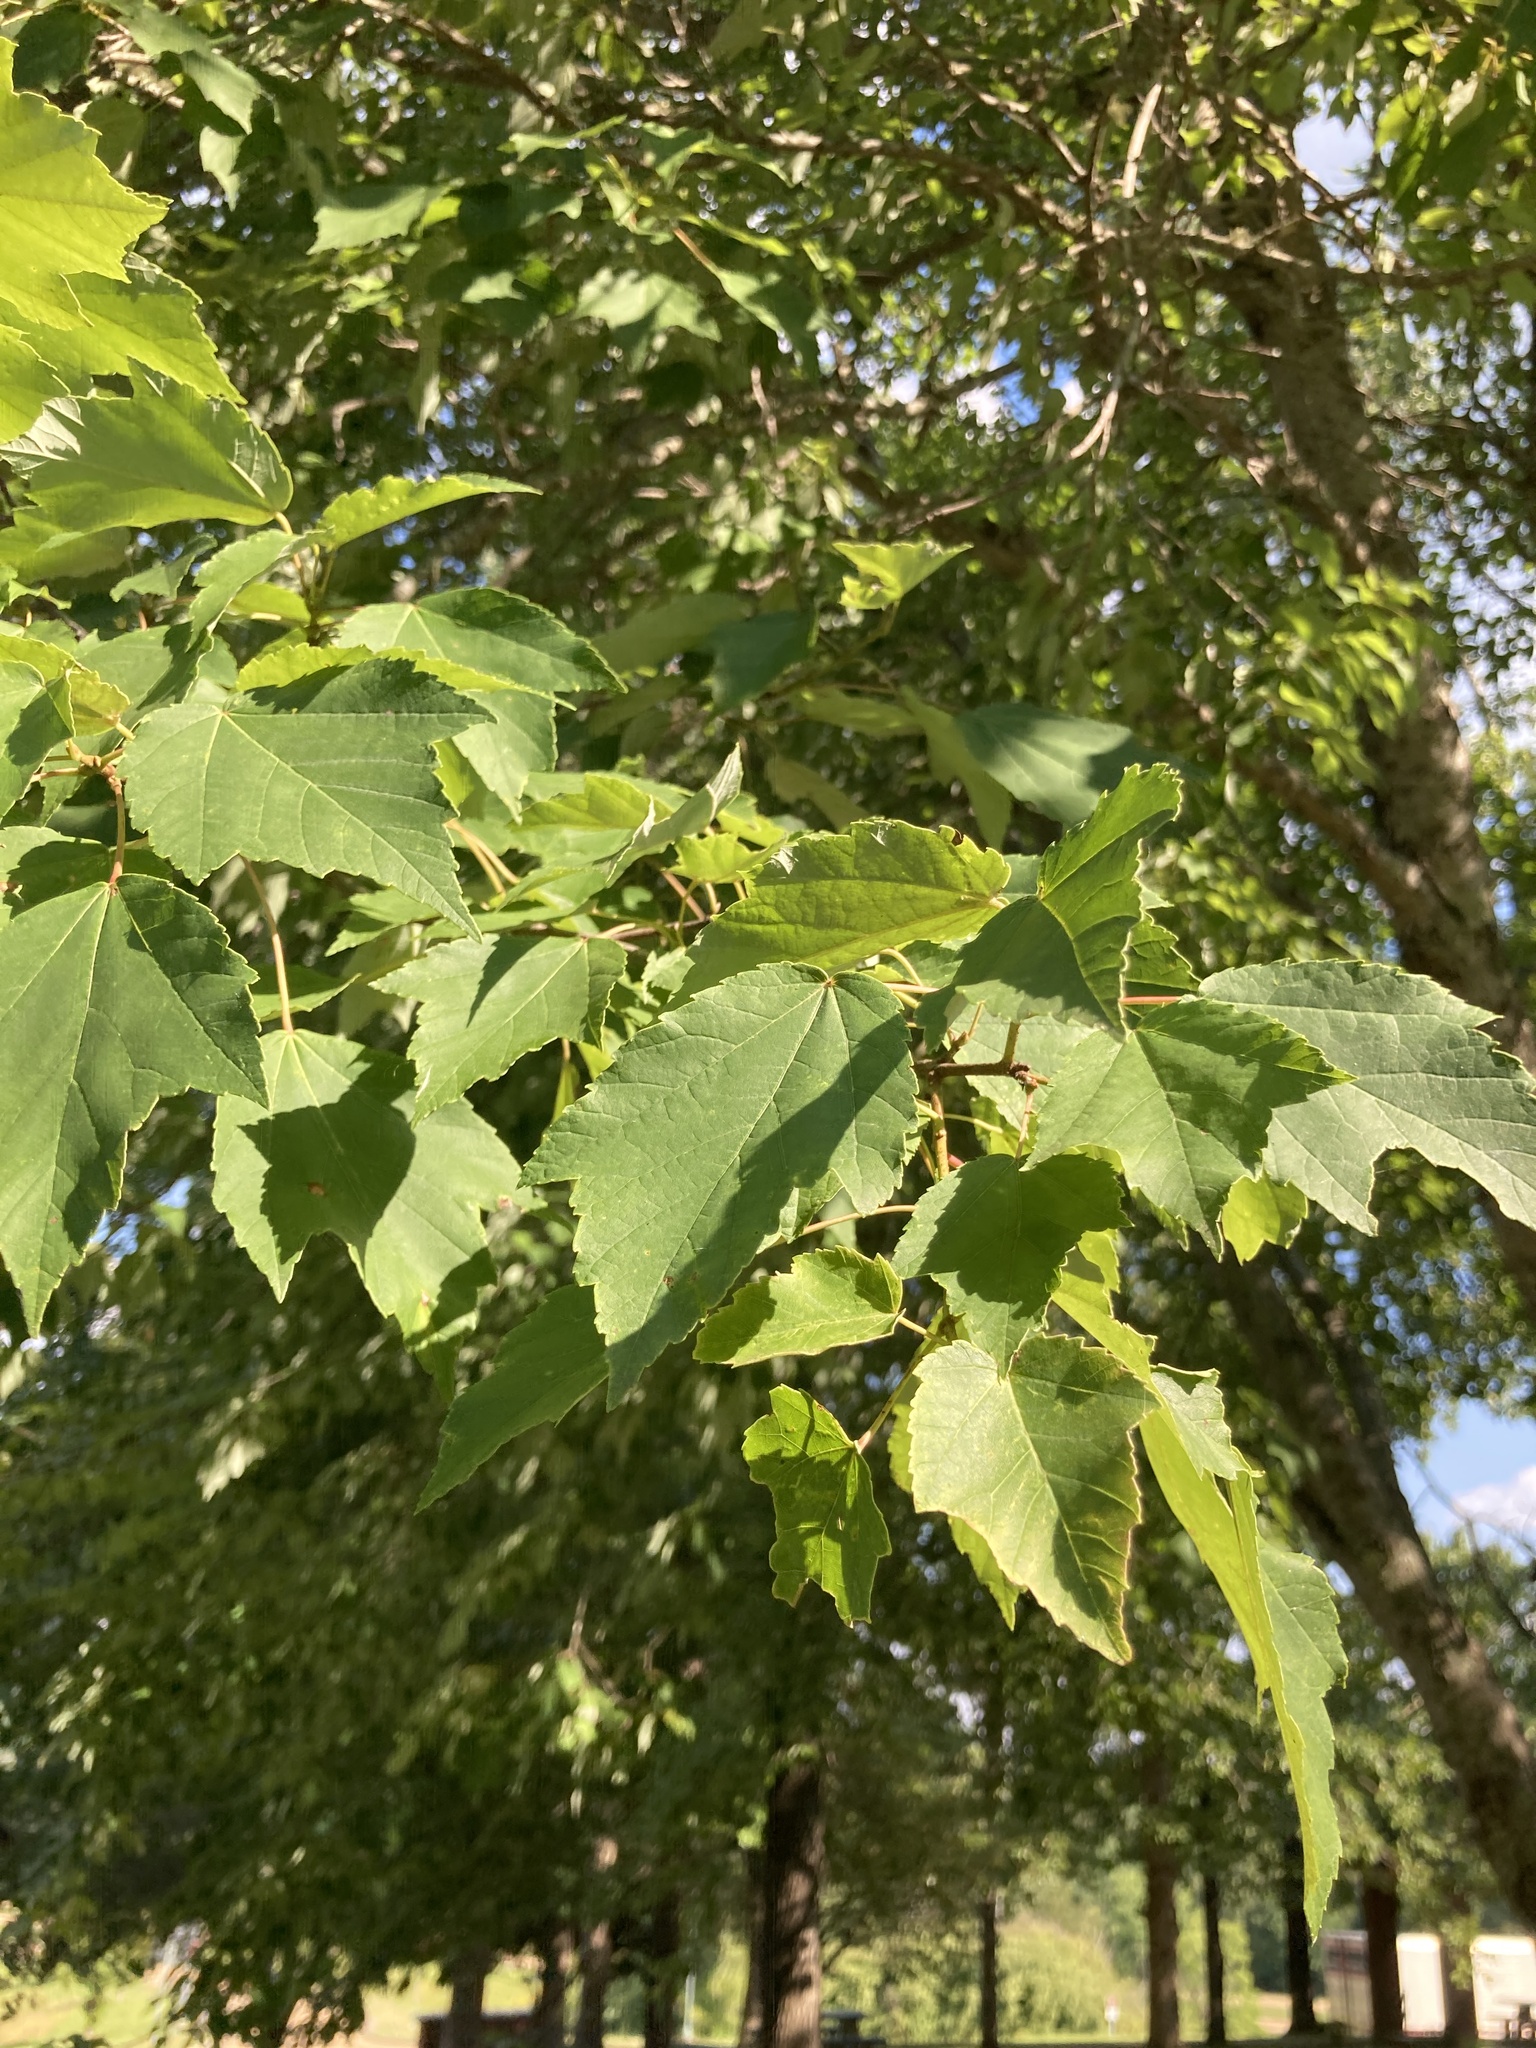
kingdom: Plantae
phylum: Tracheophyta
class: Magnoliopsida
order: Sapindales
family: Sapindaceae
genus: Acer
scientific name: Acer rubrum
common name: Red maple
